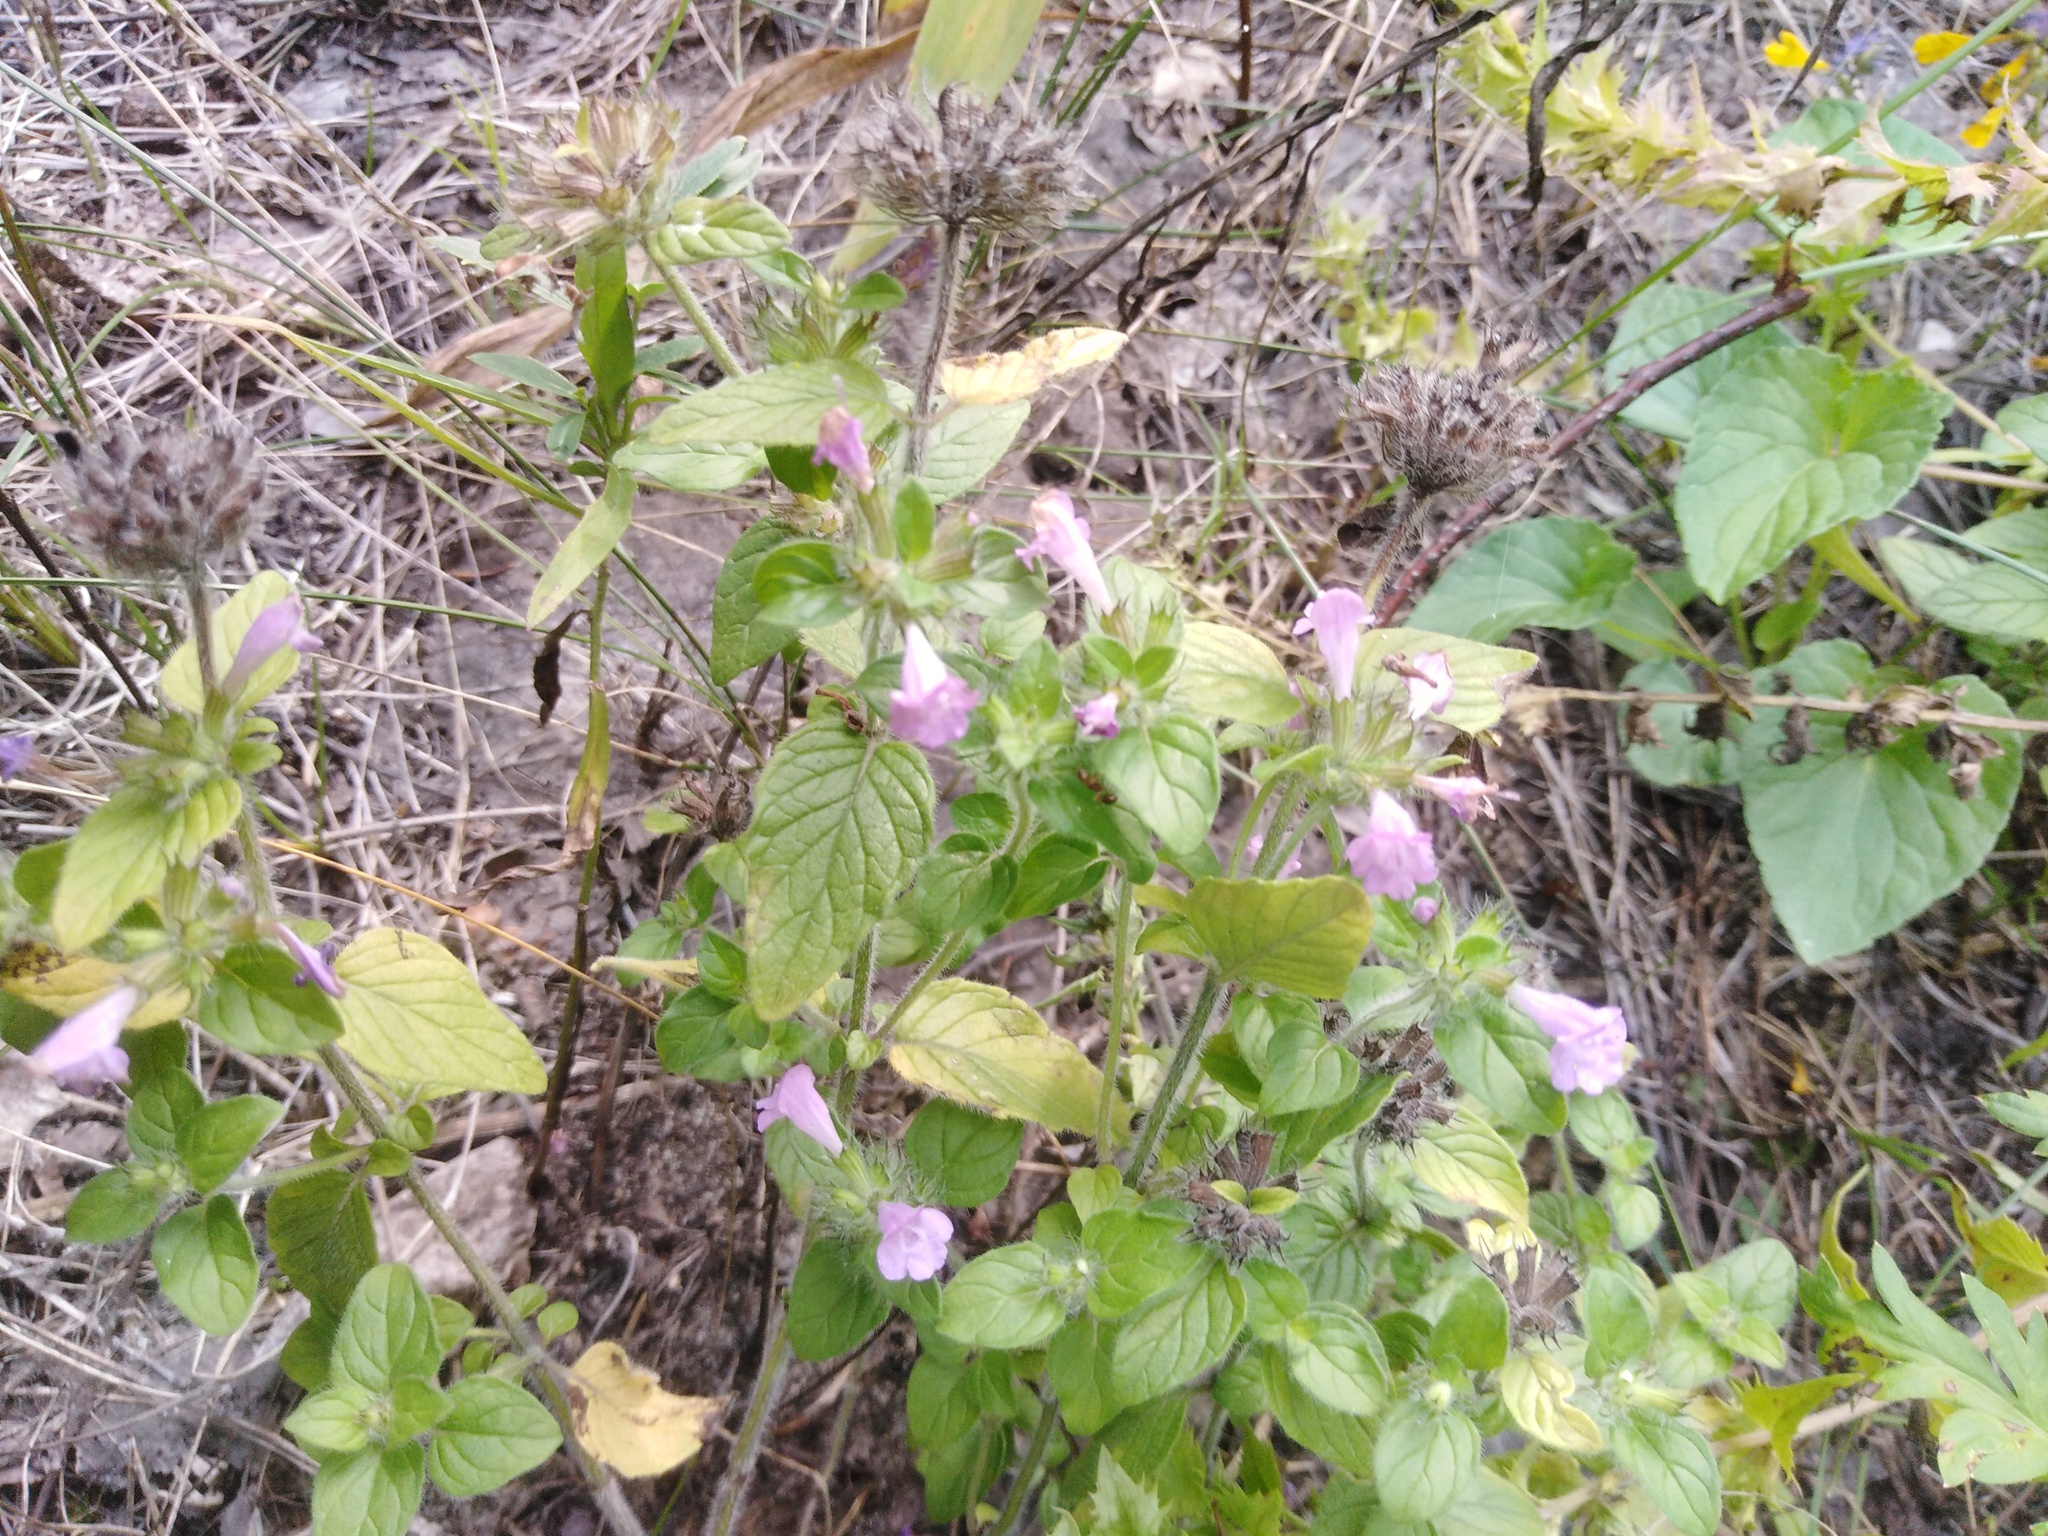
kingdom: Plantae
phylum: Tracheophyta
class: Magnoliopsida
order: Lamiales
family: Lamiaceae
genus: Clinopodium
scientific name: Clinopodium vulgare
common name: Wild basil
